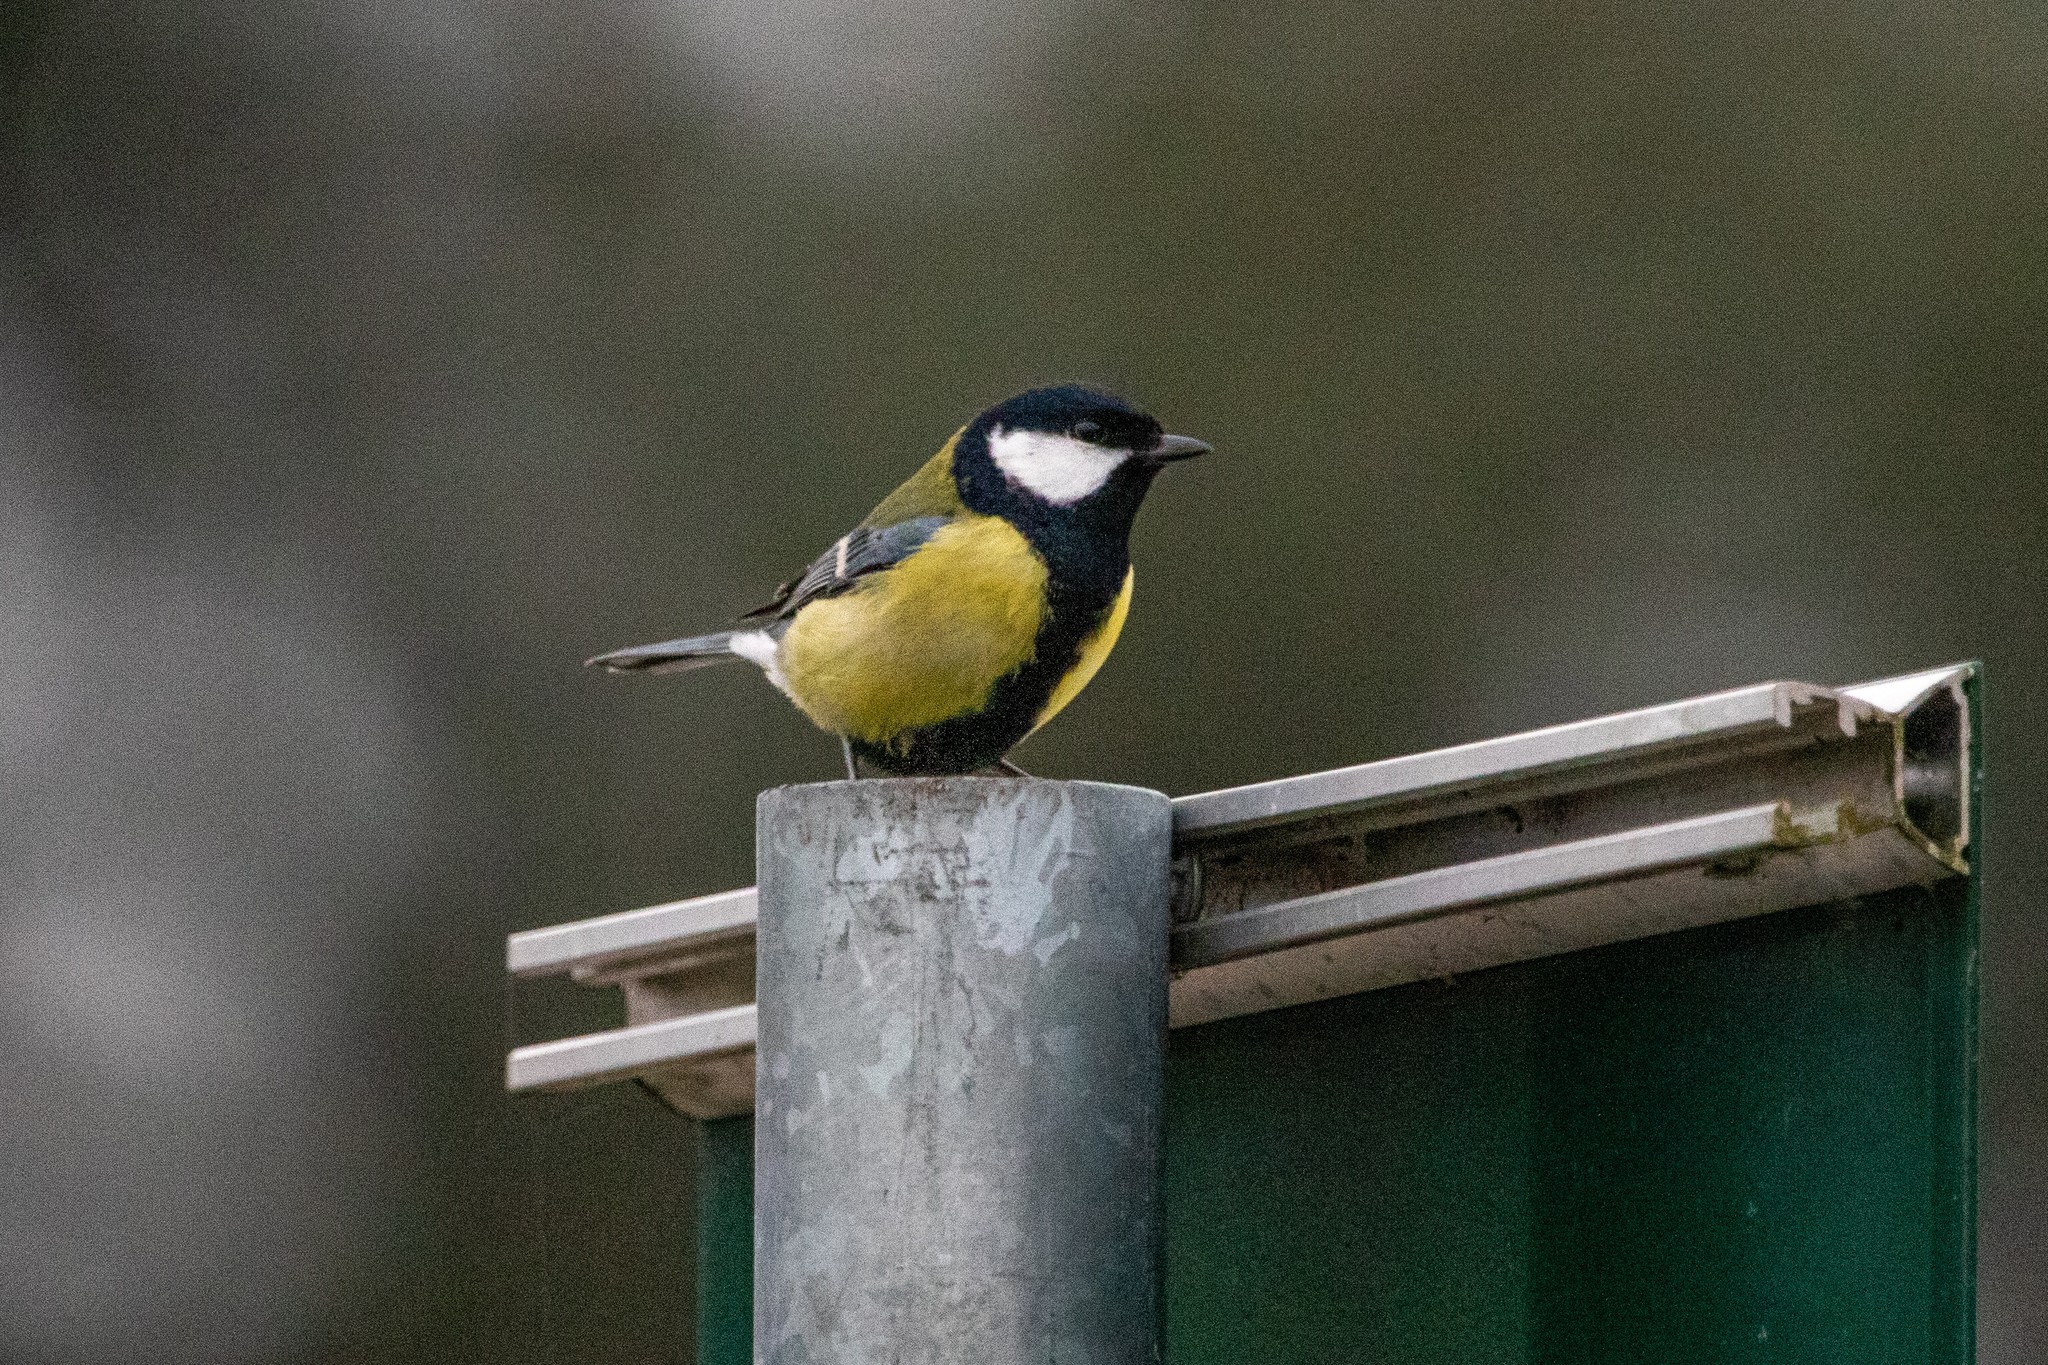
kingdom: Animalia
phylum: Chordata
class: Aves
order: Passeriformes
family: Paridae
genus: Parus
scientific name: Parus major
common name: Great tit
